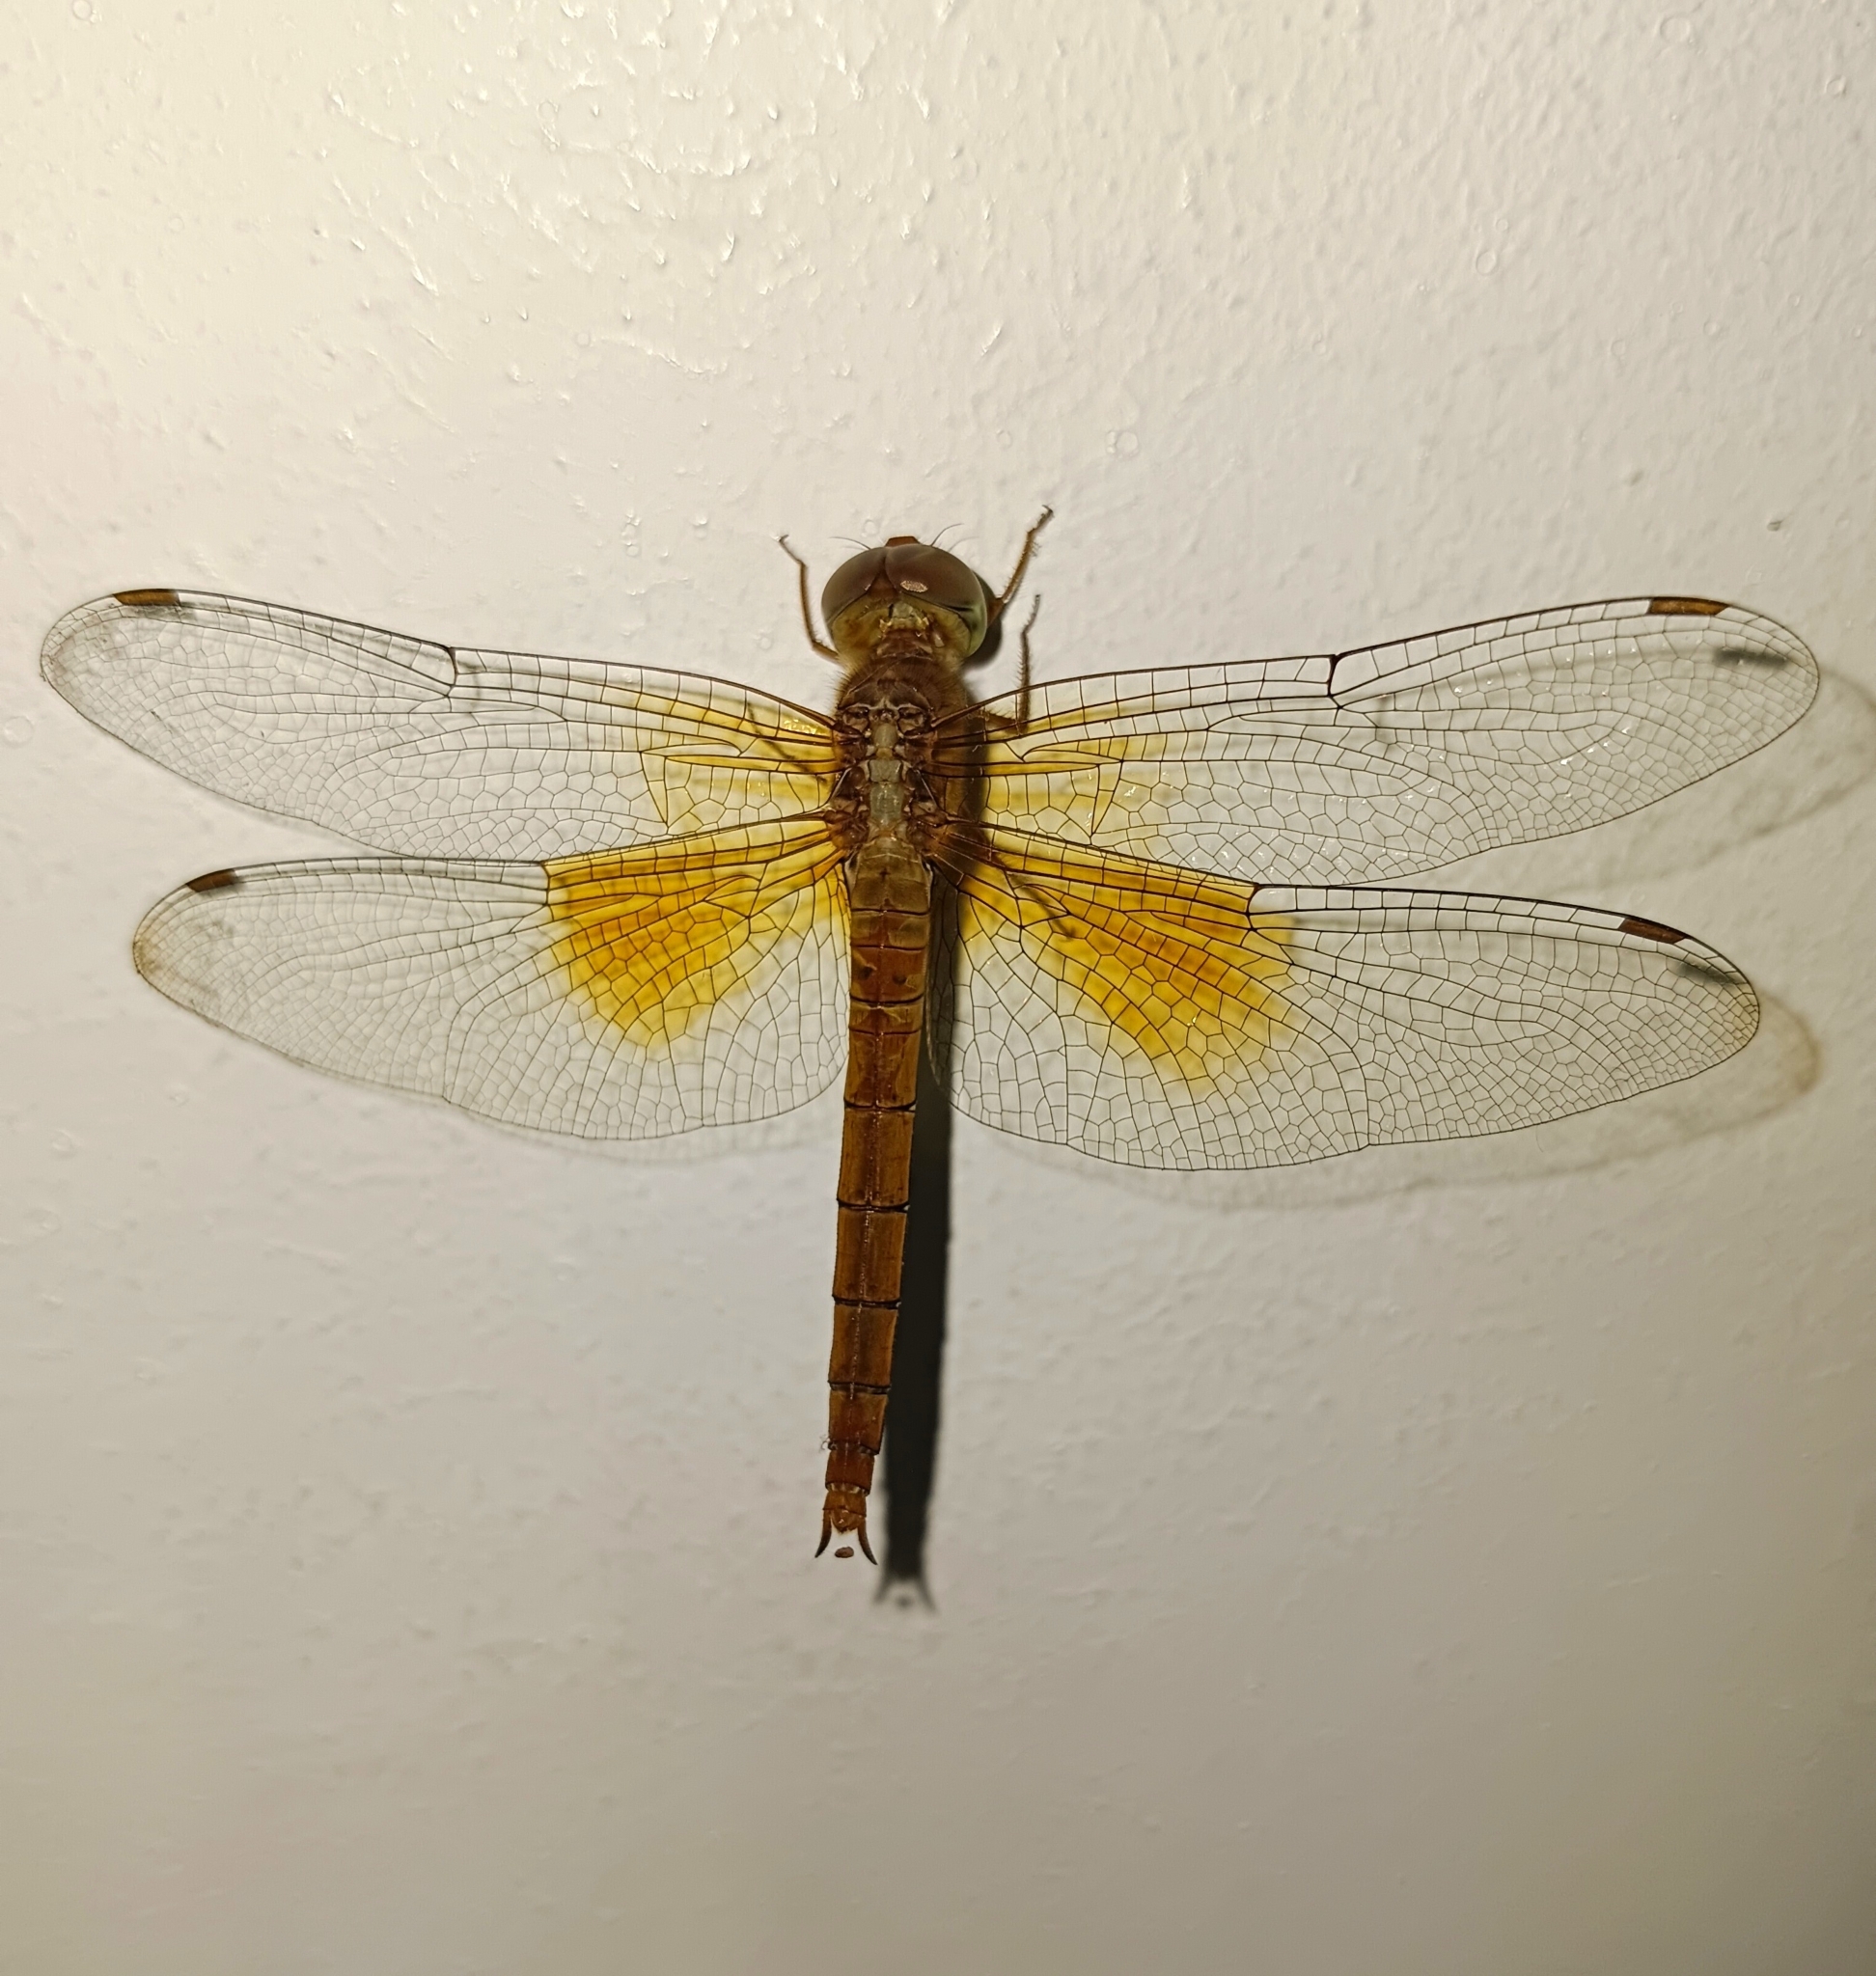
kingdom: Animalia
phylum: Arthropoda
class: Insecta
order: Odonata
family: Libellulidae
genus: Tholymis
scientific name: Tholymis tillarga
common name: Coral-tailed cloud wing
